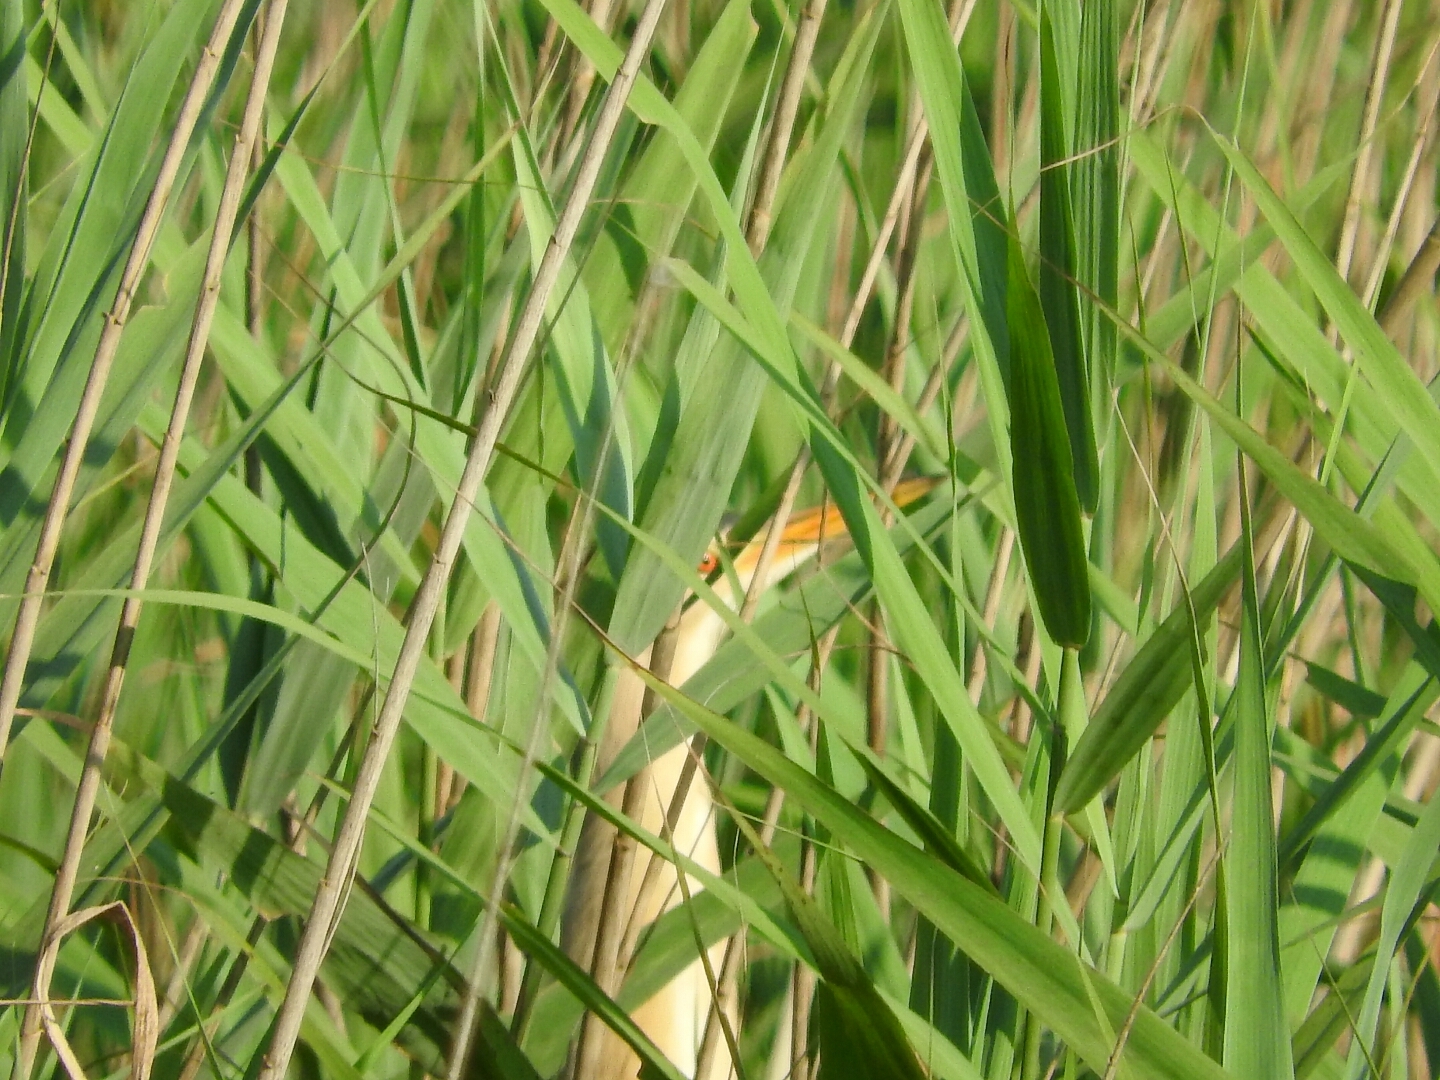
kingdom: Animalia
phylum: Chordata
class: Aves
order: Pelecaniformes
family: Ardeidae
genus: Ixobrychus
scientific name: Ixobrychus minutus
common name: Little bittern
